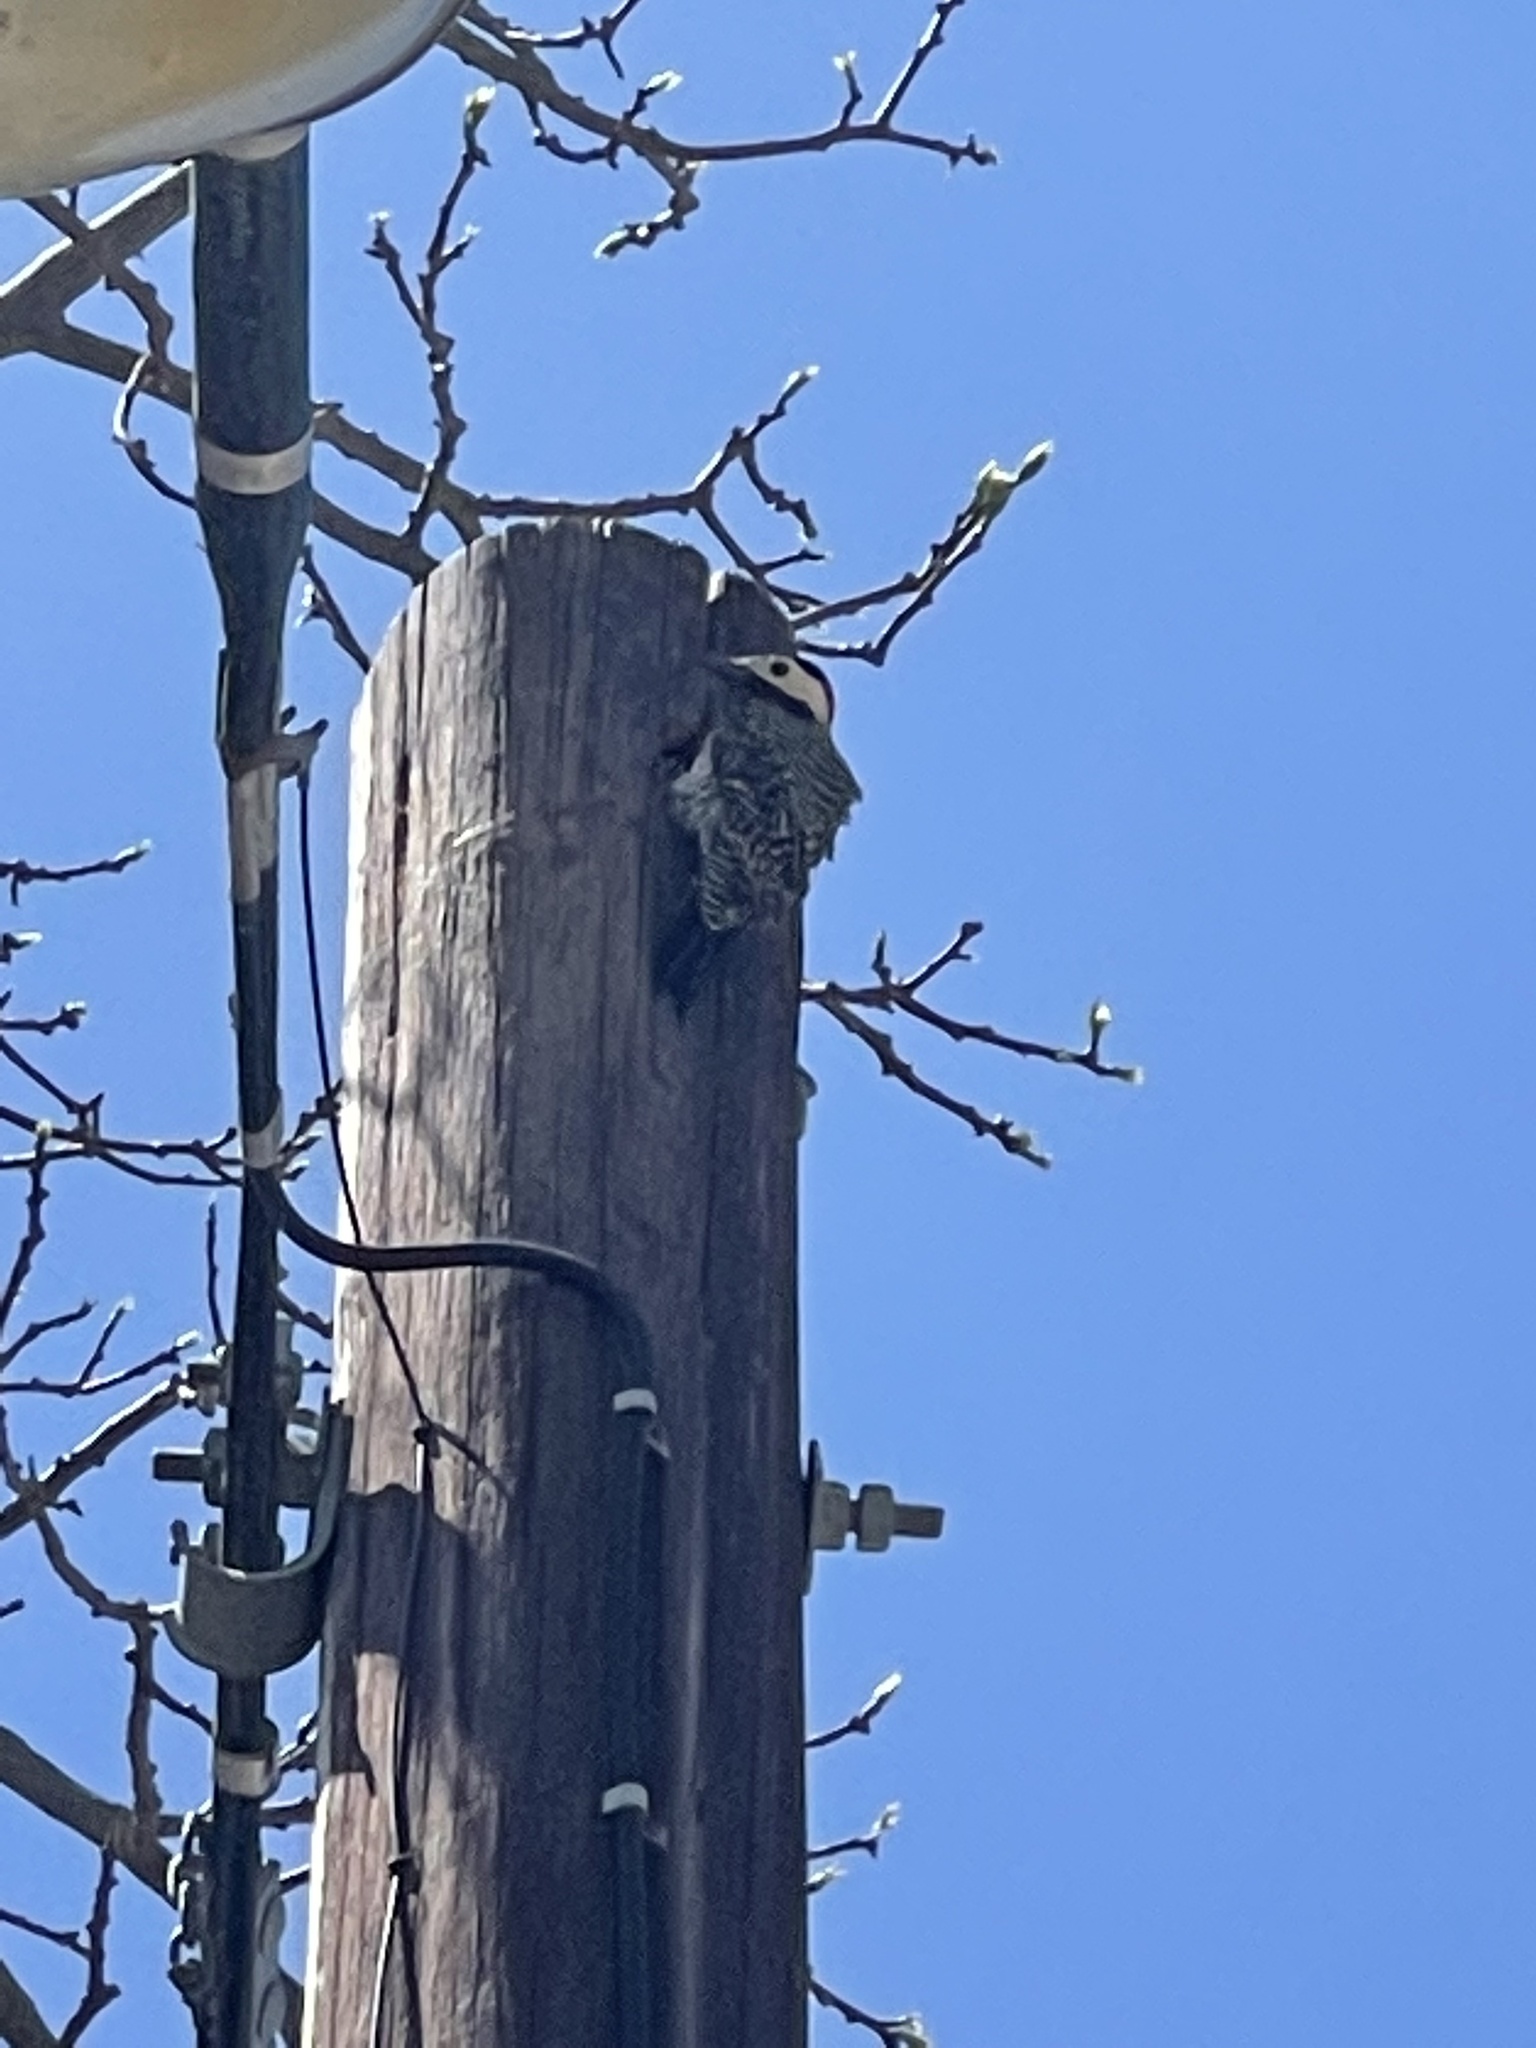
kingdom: Animalia
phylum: Chordata
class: Aves
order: Piciformes
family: Picidae
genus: Colaptes
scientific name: Colaptes melanochloros
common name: Green-barred woodpecker
